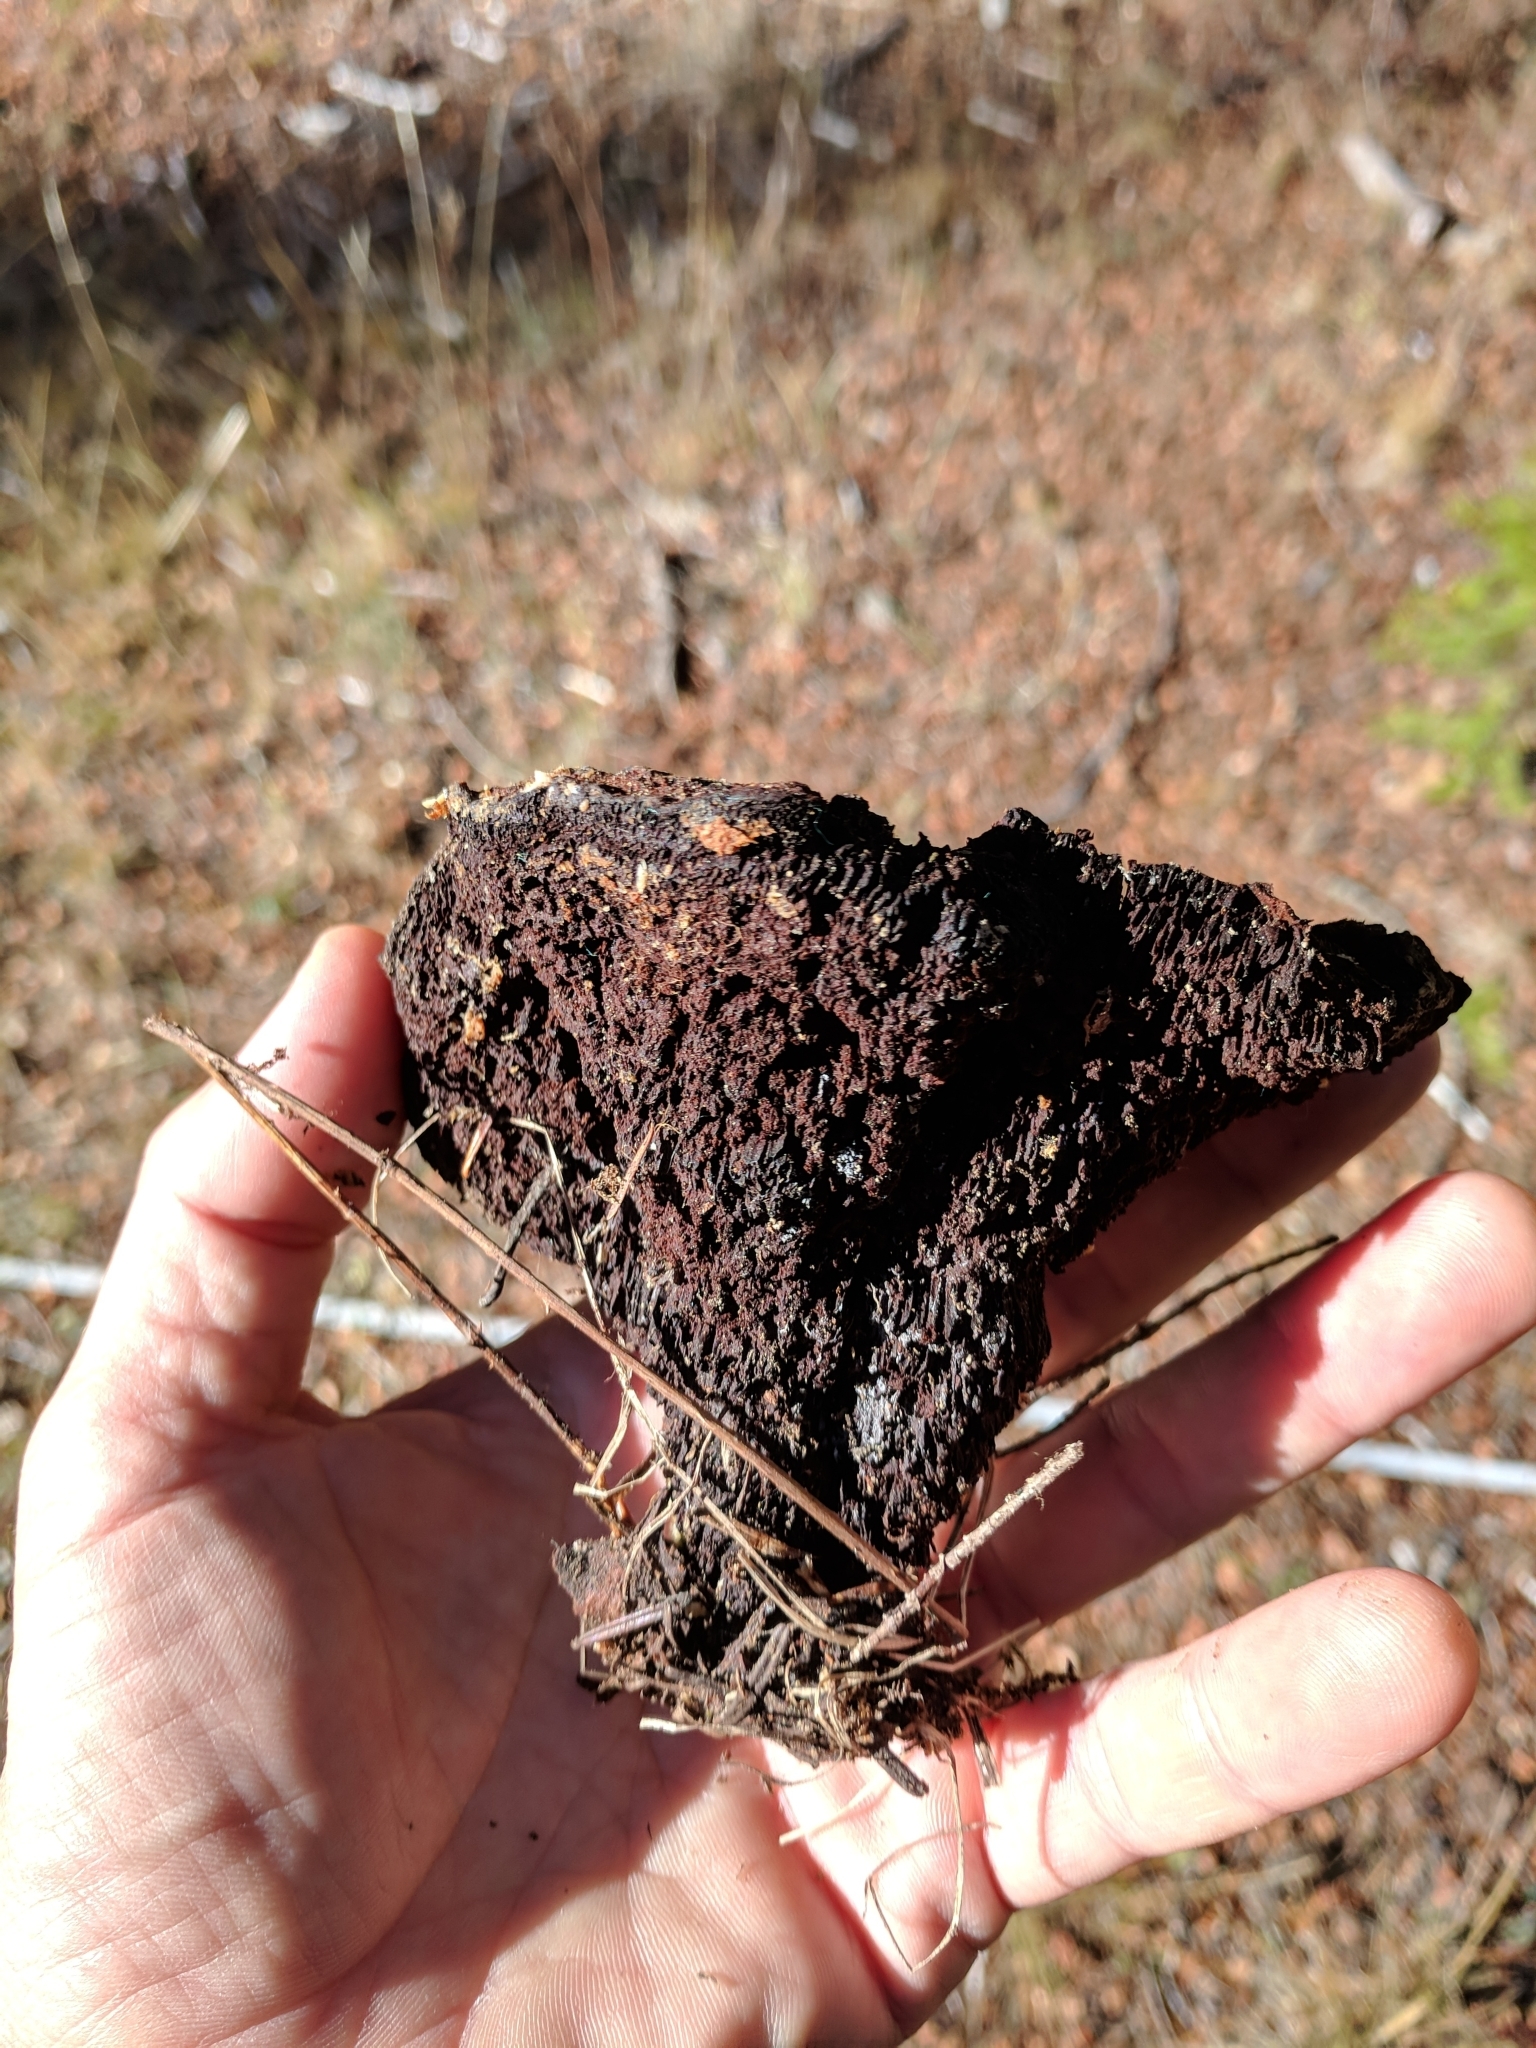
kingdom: Fungi
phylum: Basidiomycota
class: Agaricomycetes
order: Polyporales
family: Laetiporaceae
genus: Phaeolus
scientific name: Phaeolus schweinitzii
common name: Dyer's mazegill
